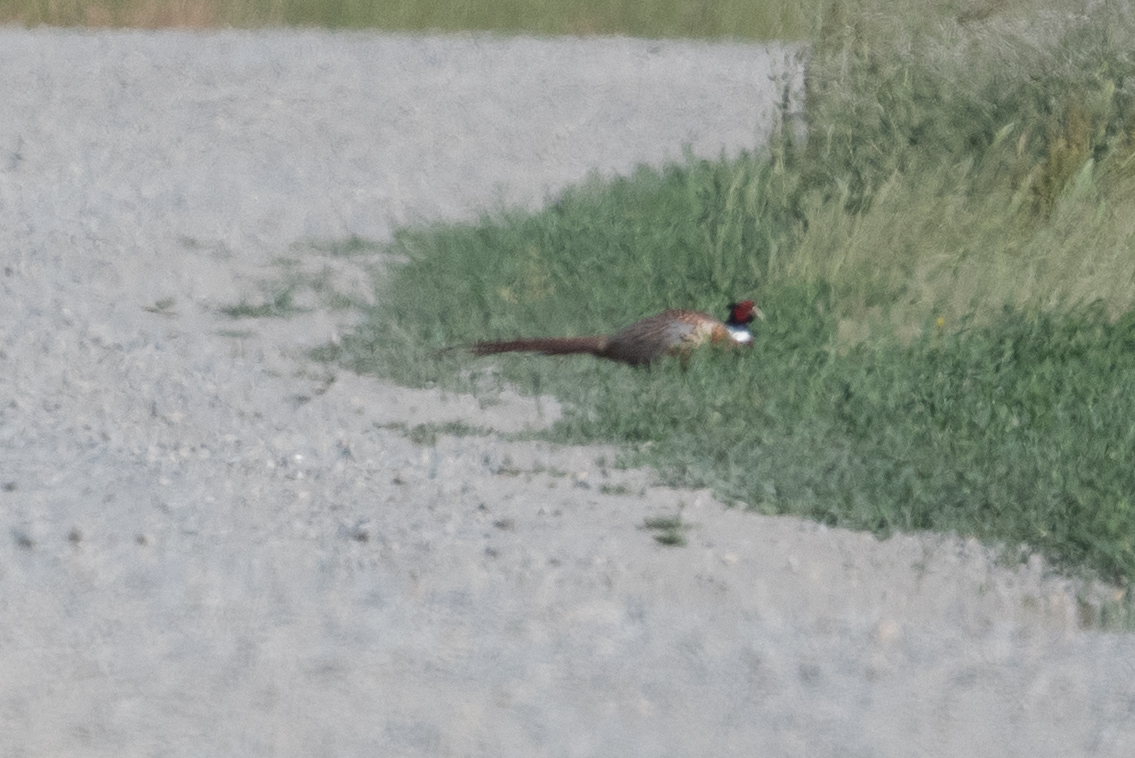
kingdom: Animalia
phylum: Chordata
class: Aves
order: Galliformes
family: Phasianidae
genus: Phasianus
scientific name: Phasianus colchicus
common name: Common pheasant
